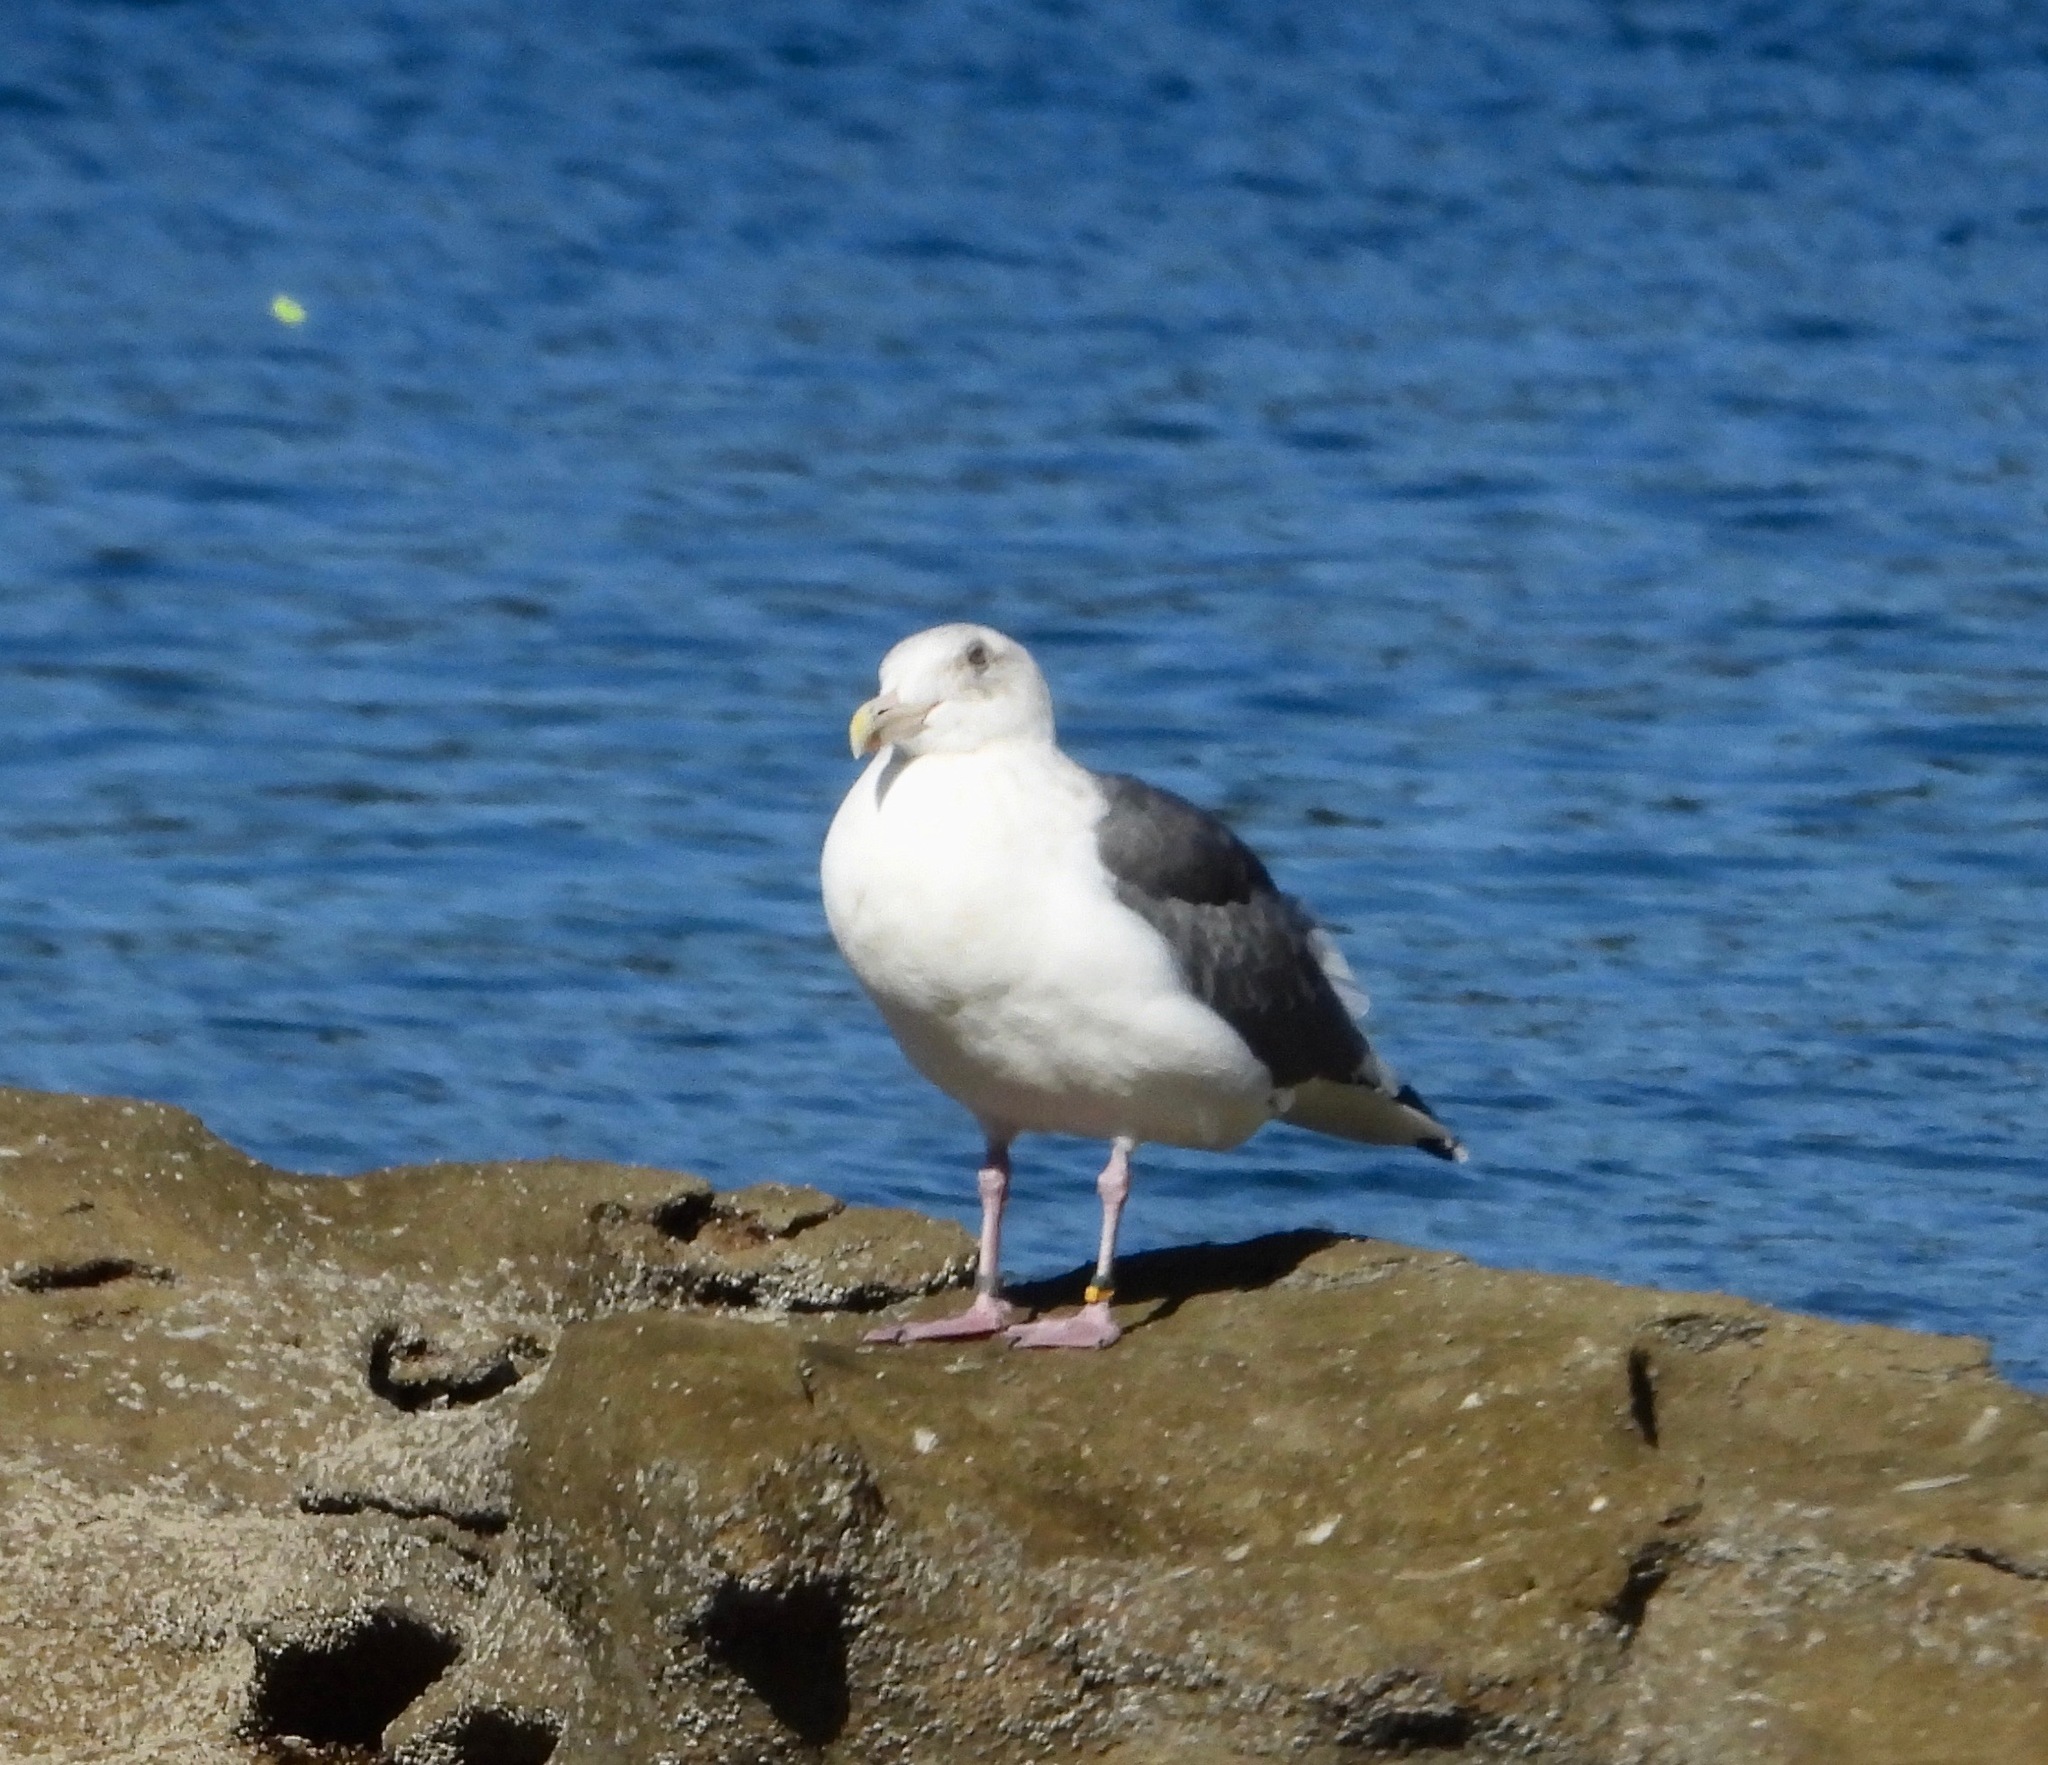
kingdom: Animalia
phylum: Chordata
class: Aves
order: Charadriiformes
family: Laridae
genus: Larus
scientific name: Larus schistisagus
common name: Slaty-backed gull
